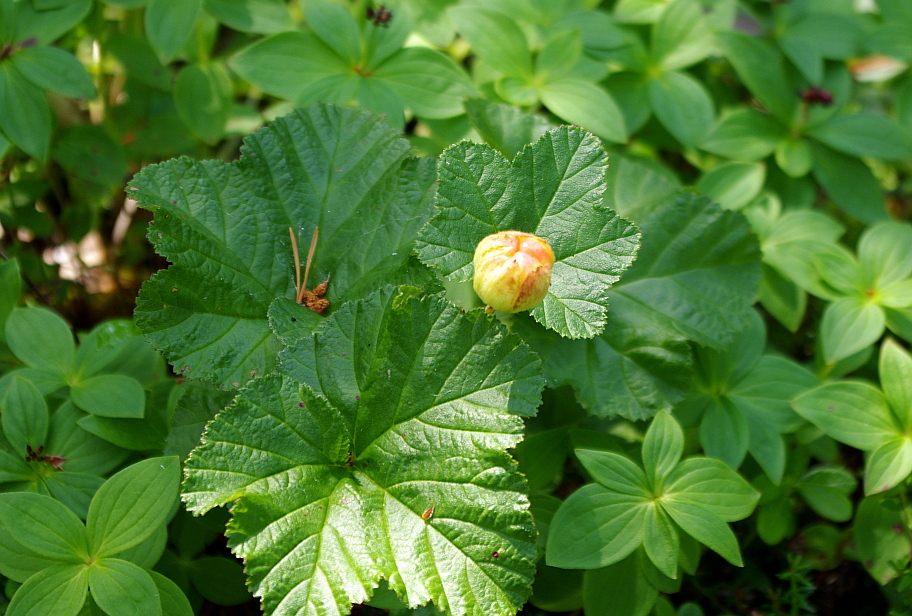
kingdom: Plantae
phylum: Tracheophyta
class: Magnoliopsida
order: Rosales
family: Rosaceae
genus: Rubus
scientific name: Rubus chamaemorus
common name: Cloudberry
